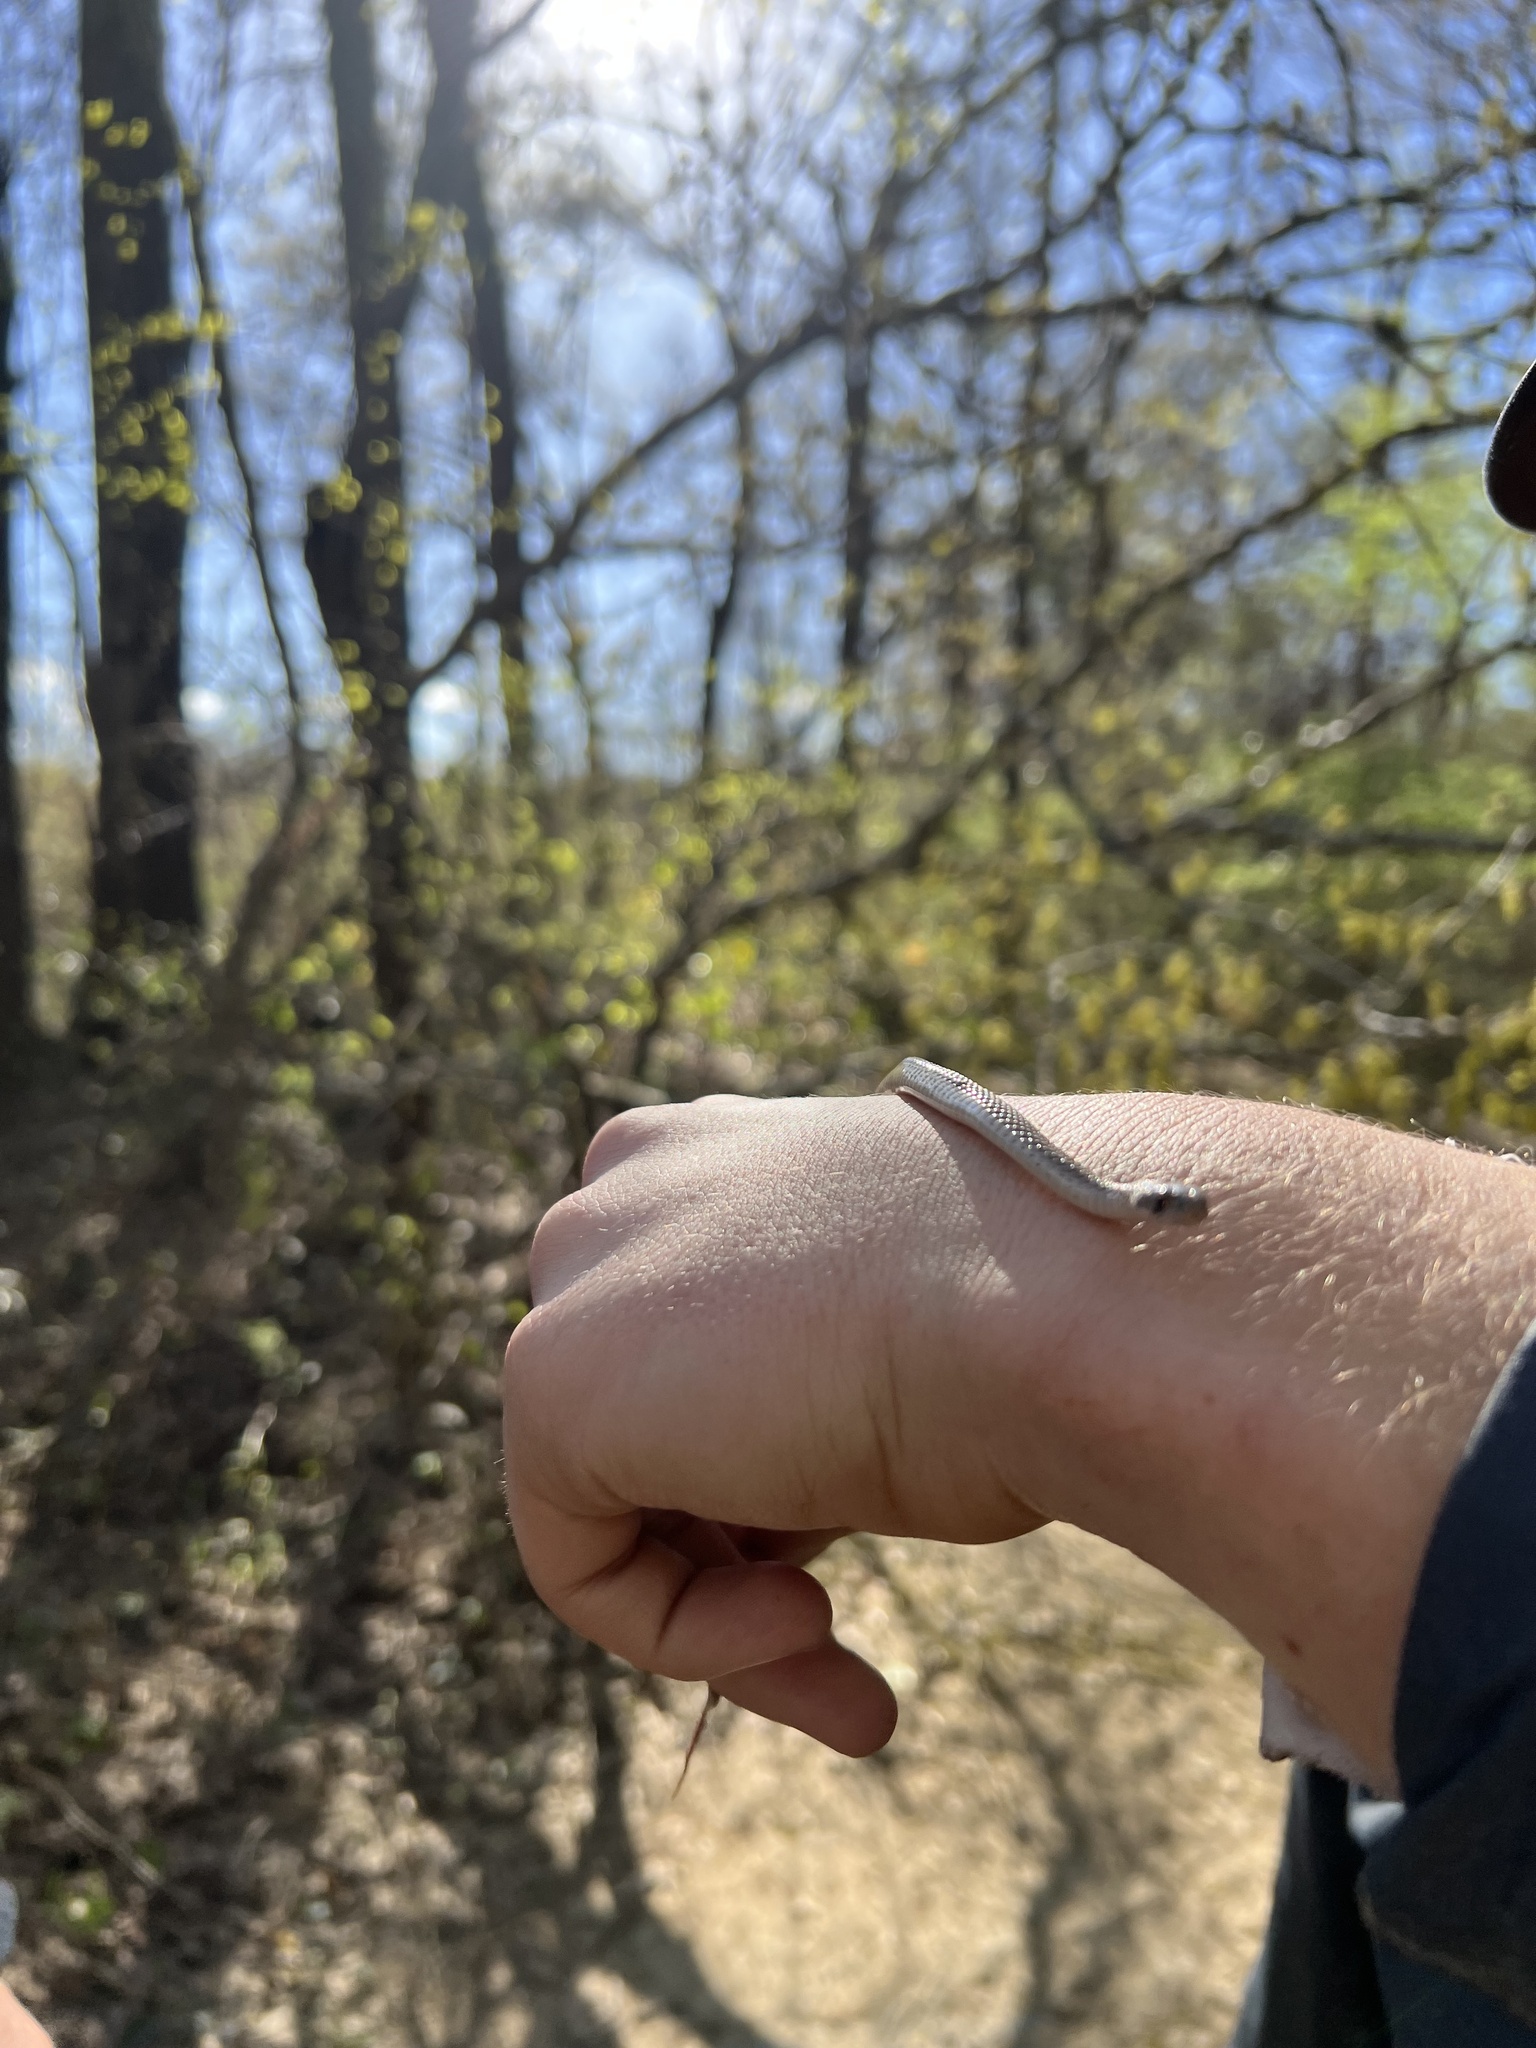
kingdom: Animalia
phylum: Chordata
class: Squamata
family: Colubridae
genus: Storeria
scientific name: Storeria dekayi
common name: (dekay’s) brown snake
